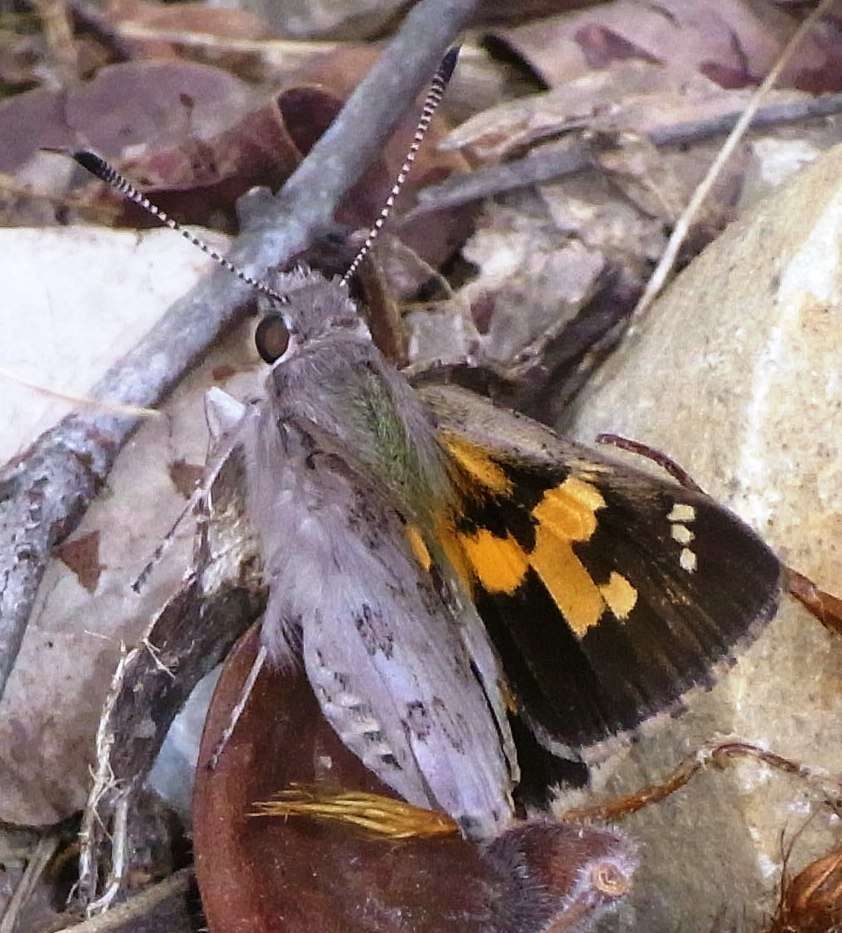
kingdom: Animalia
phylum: Arthropoda
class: Insecta
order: Lepidoptera
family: Hesperiidae
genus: Trapezites
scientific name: Trapezites phigalioides
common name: Montane ochre
